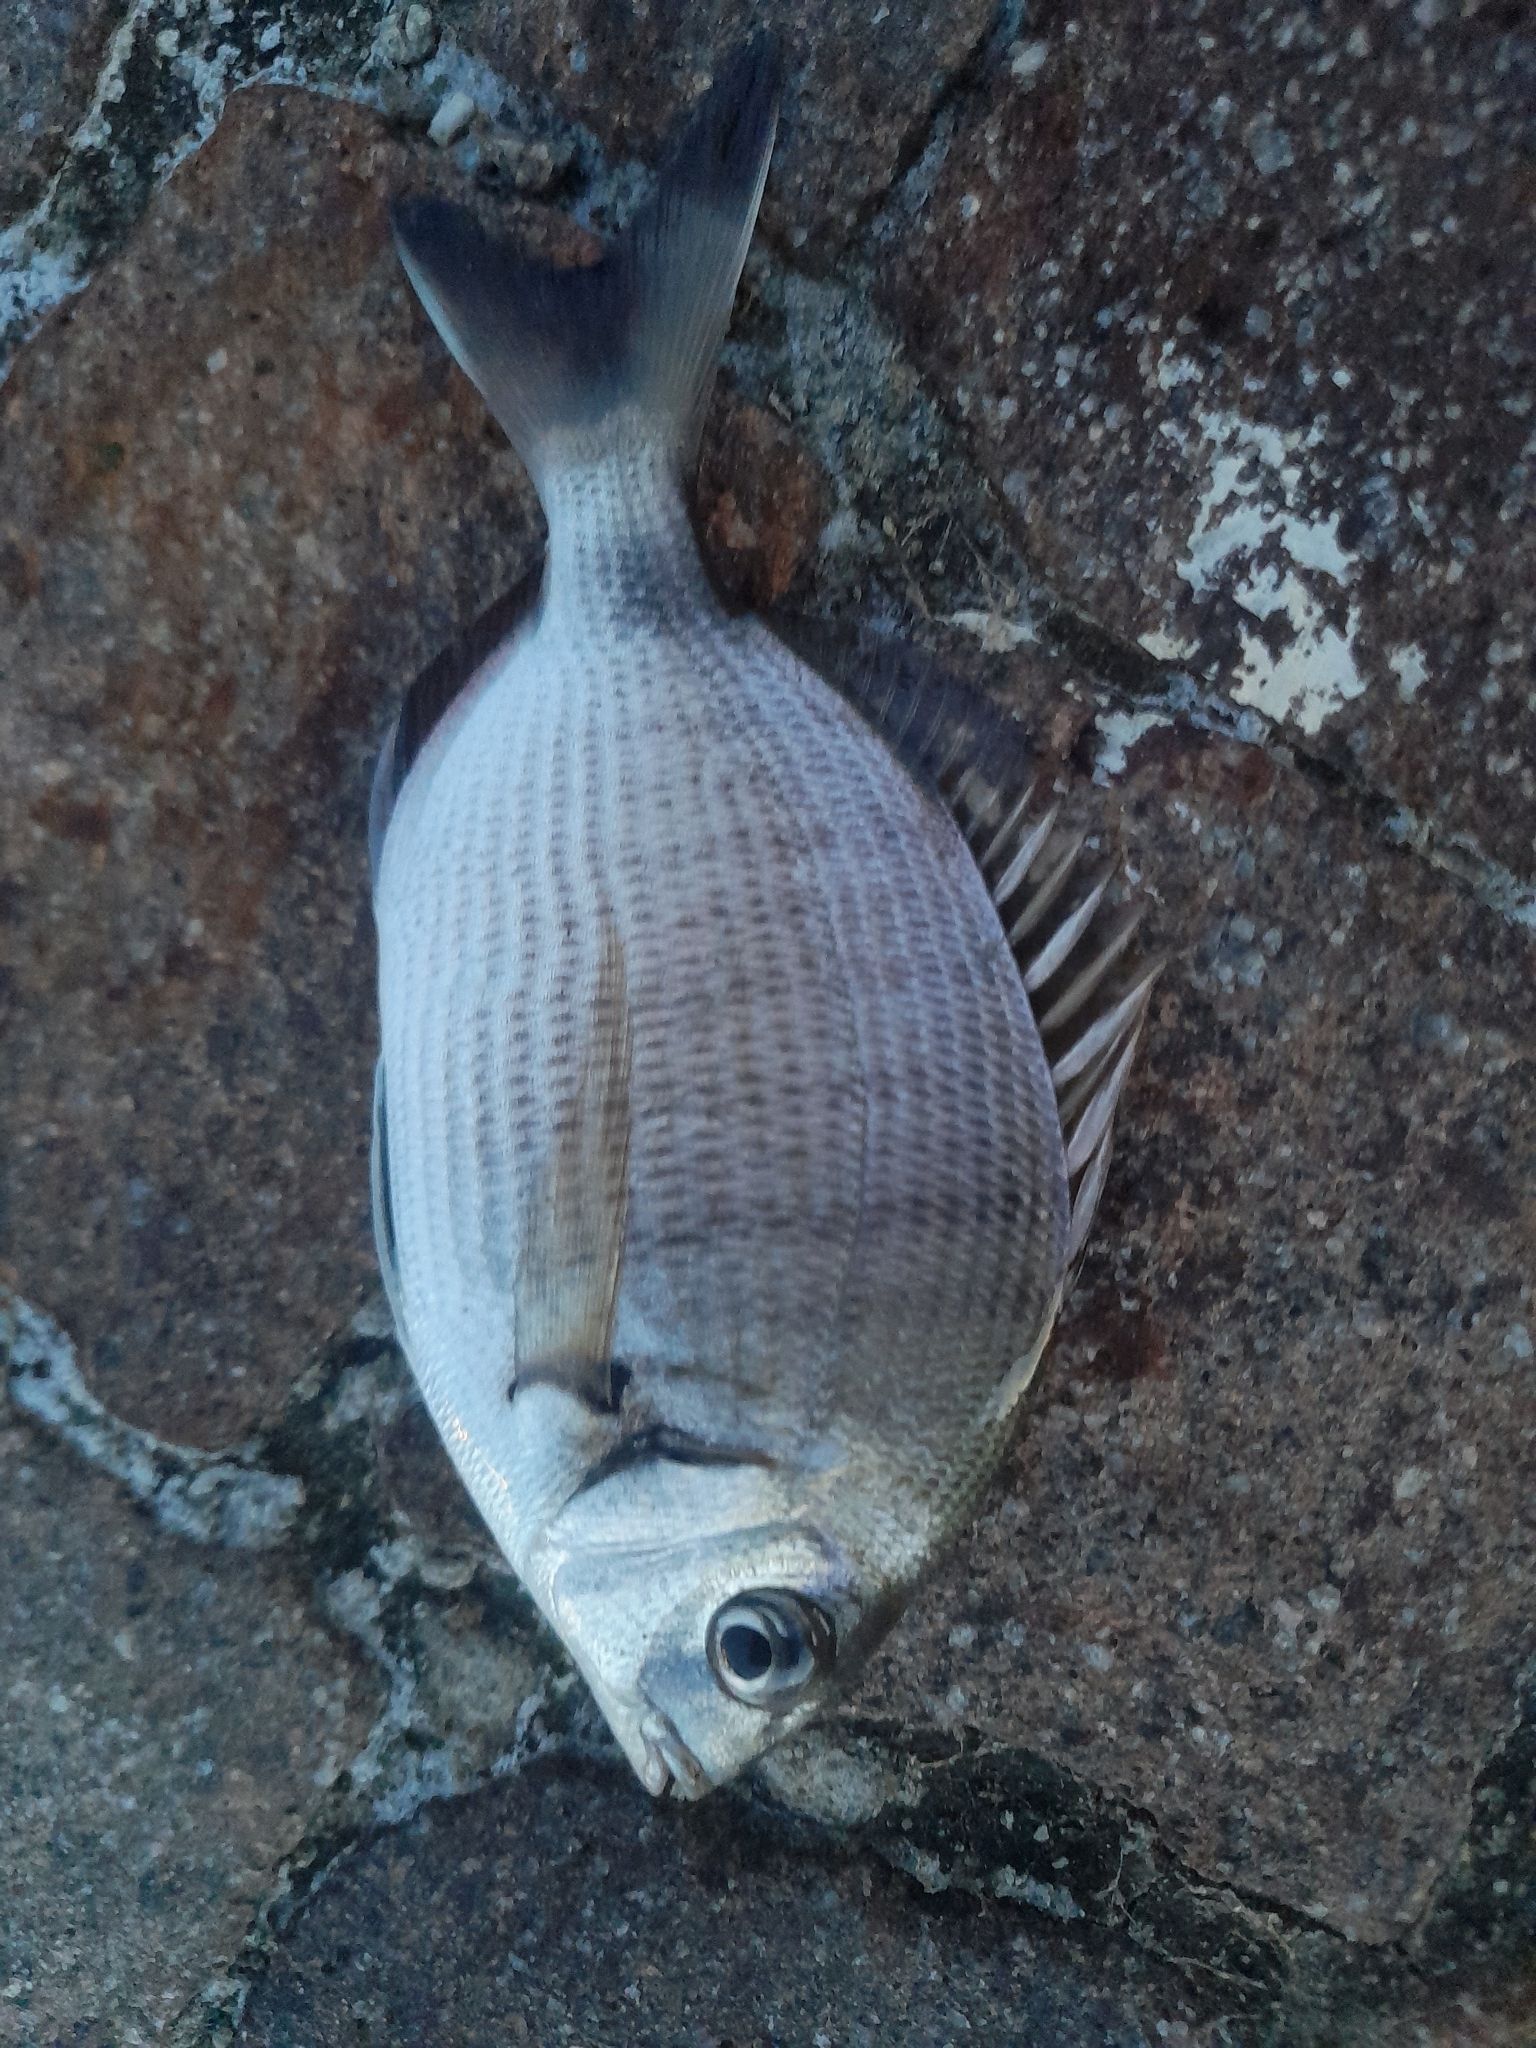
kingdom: Animalia
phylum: Chordata
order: Perciformes
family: Sparidae
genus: Diplodus
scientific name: Diplodus sargus
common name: White seabream
